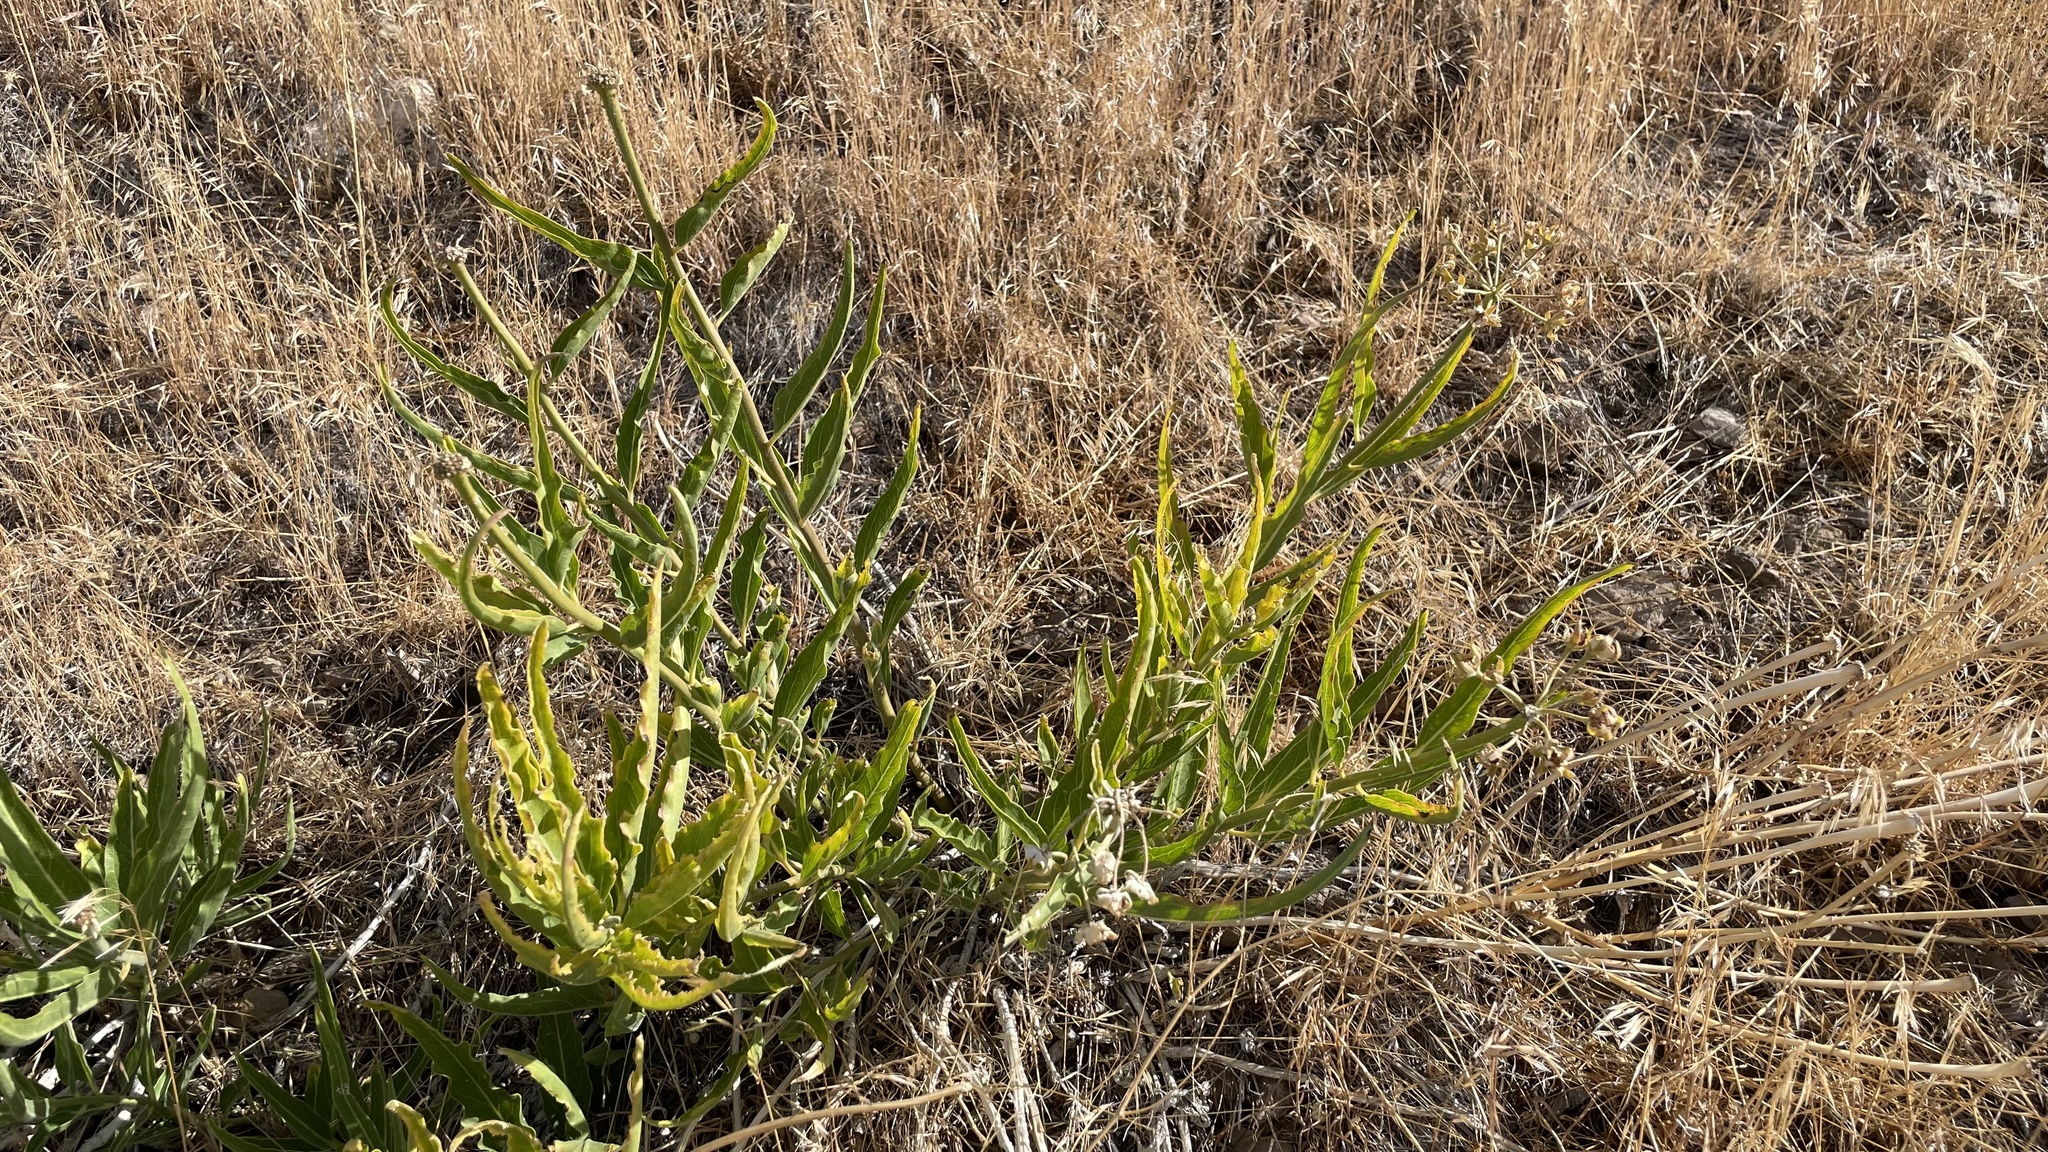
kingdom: Plantae
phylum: Tracheophyta
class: Magnoliopsida
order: Gentianales
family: Apocynaceae
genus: Asclepias
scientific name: Asclepias asperula
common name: Antelope horns
